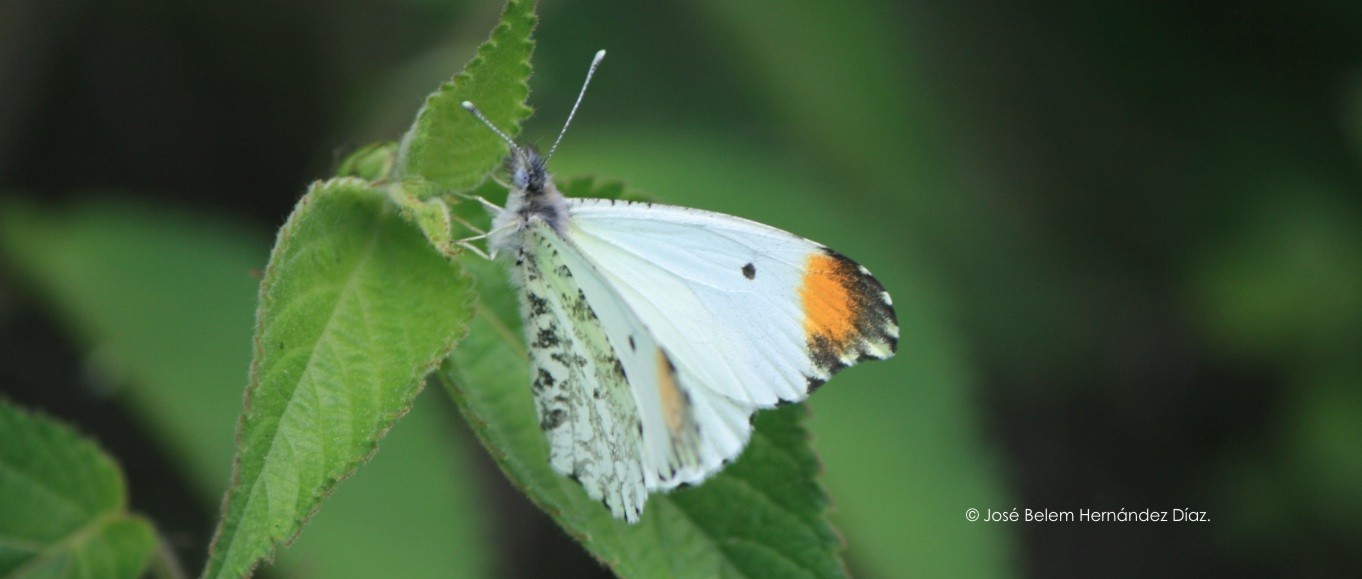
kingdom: Animalia
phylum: Arthropoda
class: Insecta
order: Lepidoptera
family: Pieridae
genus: Anthocharis
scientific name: Anthocharis limonea
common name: Mexican orangetip
